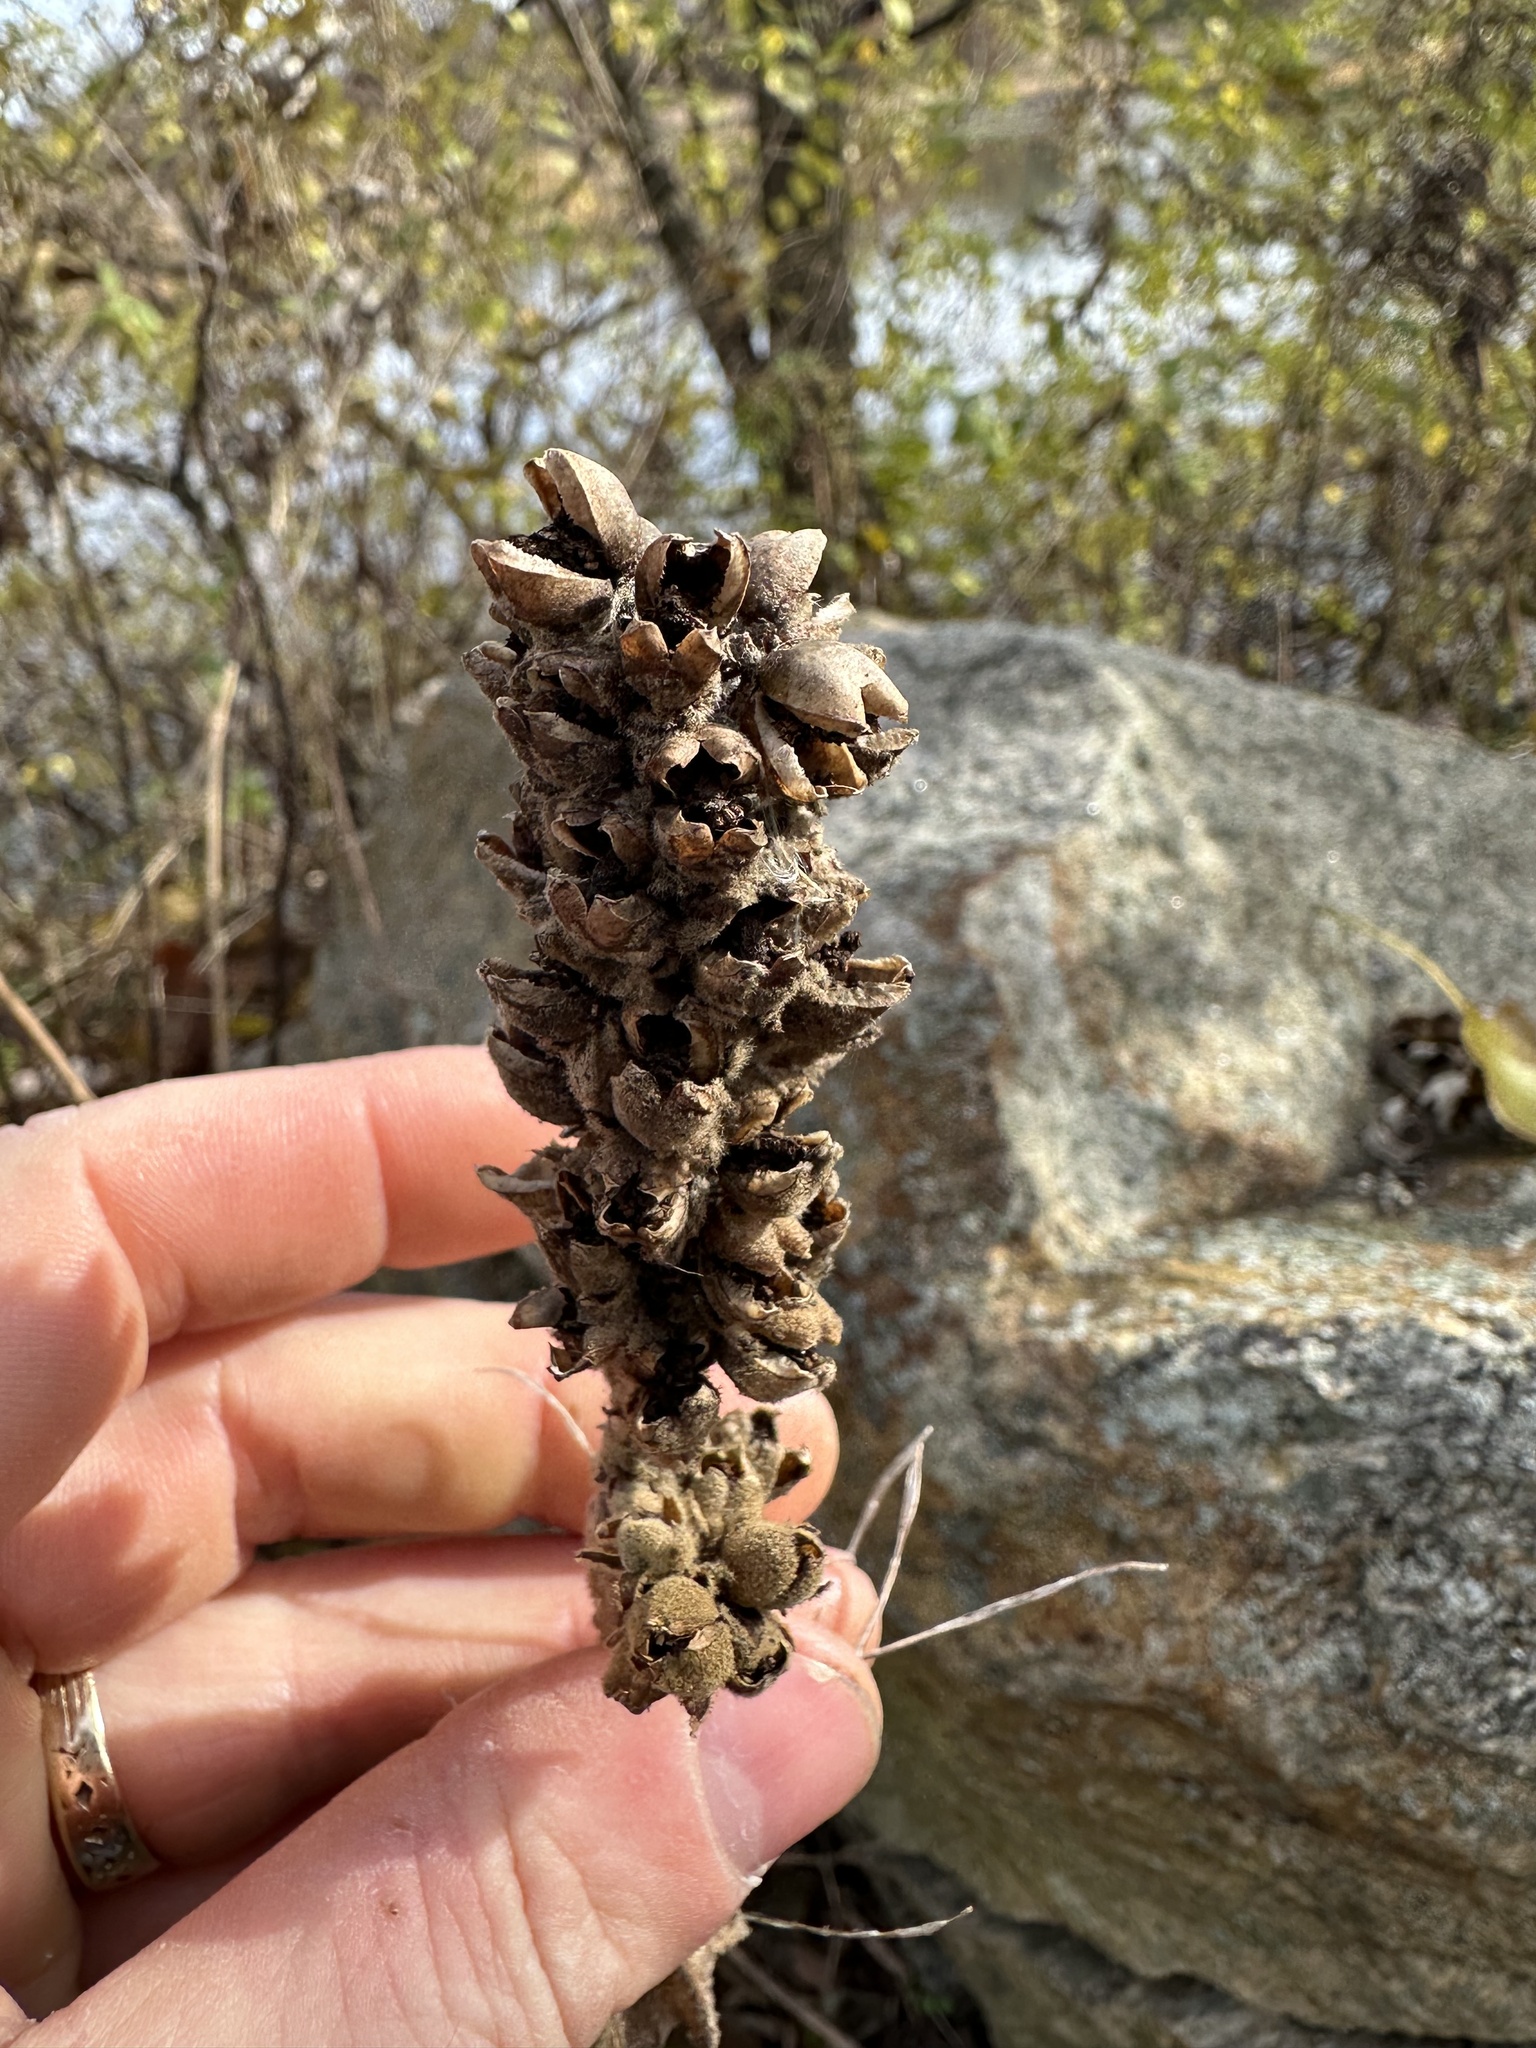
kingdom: Plantae
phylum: Tracheophyta
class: Magnoliopsida
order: Lamiales
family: Scrophulariaceae
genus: Verbascum
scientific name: Verbascum thapsus
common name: Common mullein
